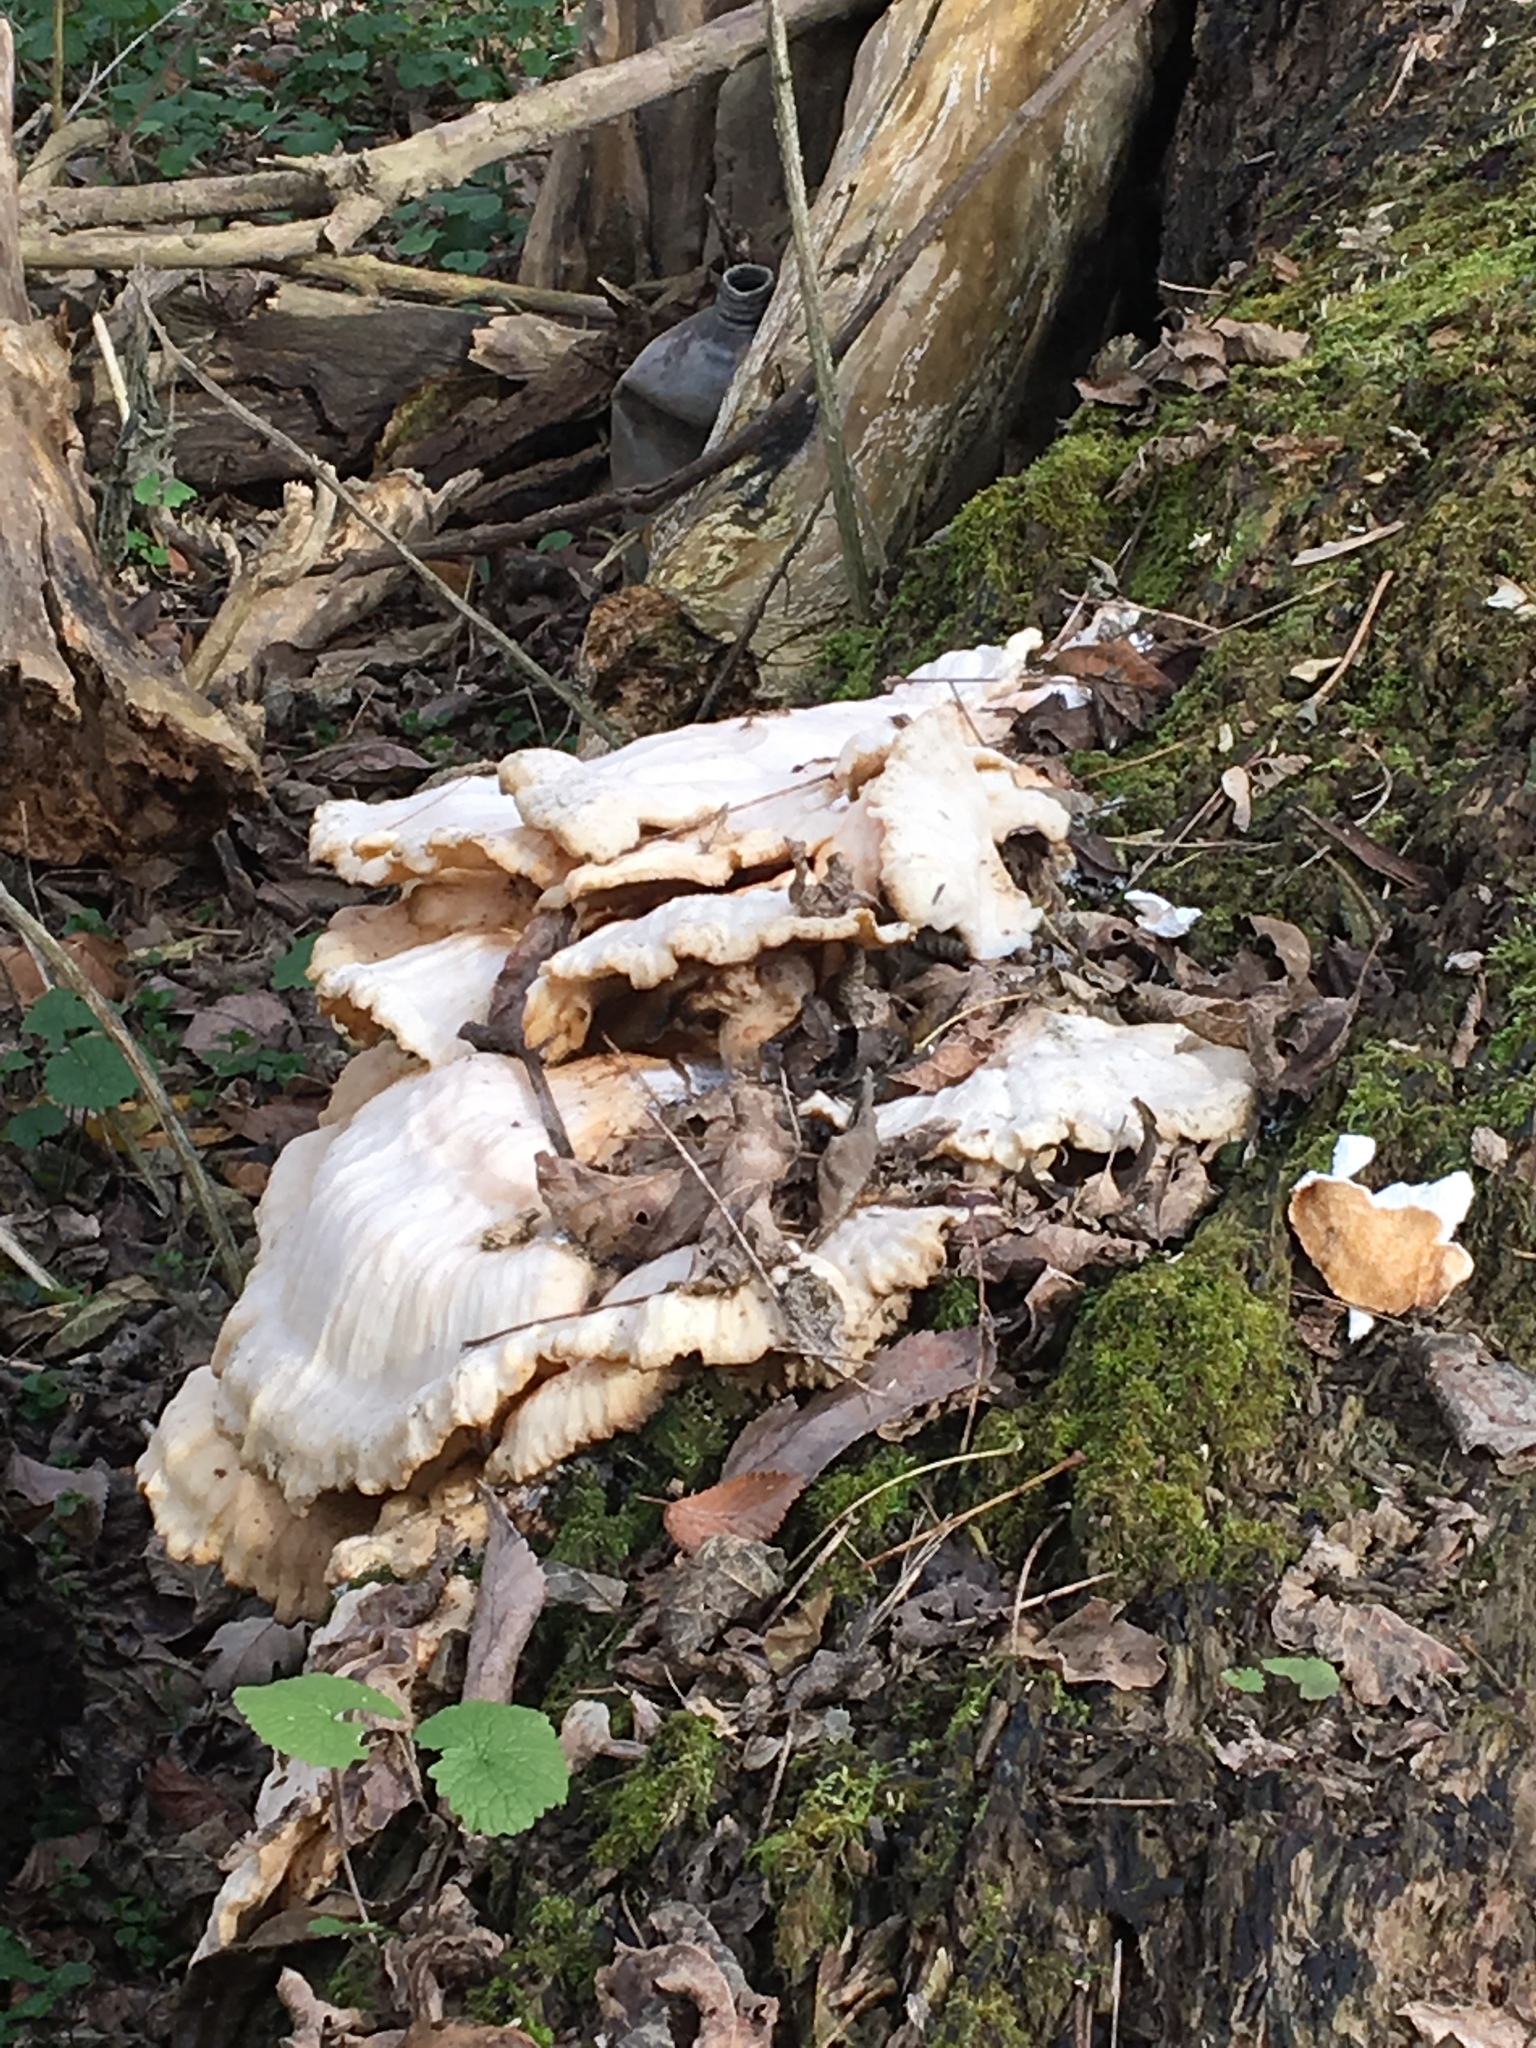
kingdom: Fungi
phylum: Basidiomycota
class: Agaricomycetes
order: Polyporales
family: Laetiporaceae
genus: Laetiporus
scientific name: Laetiporus sulphureus
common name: Chicken of the woods
